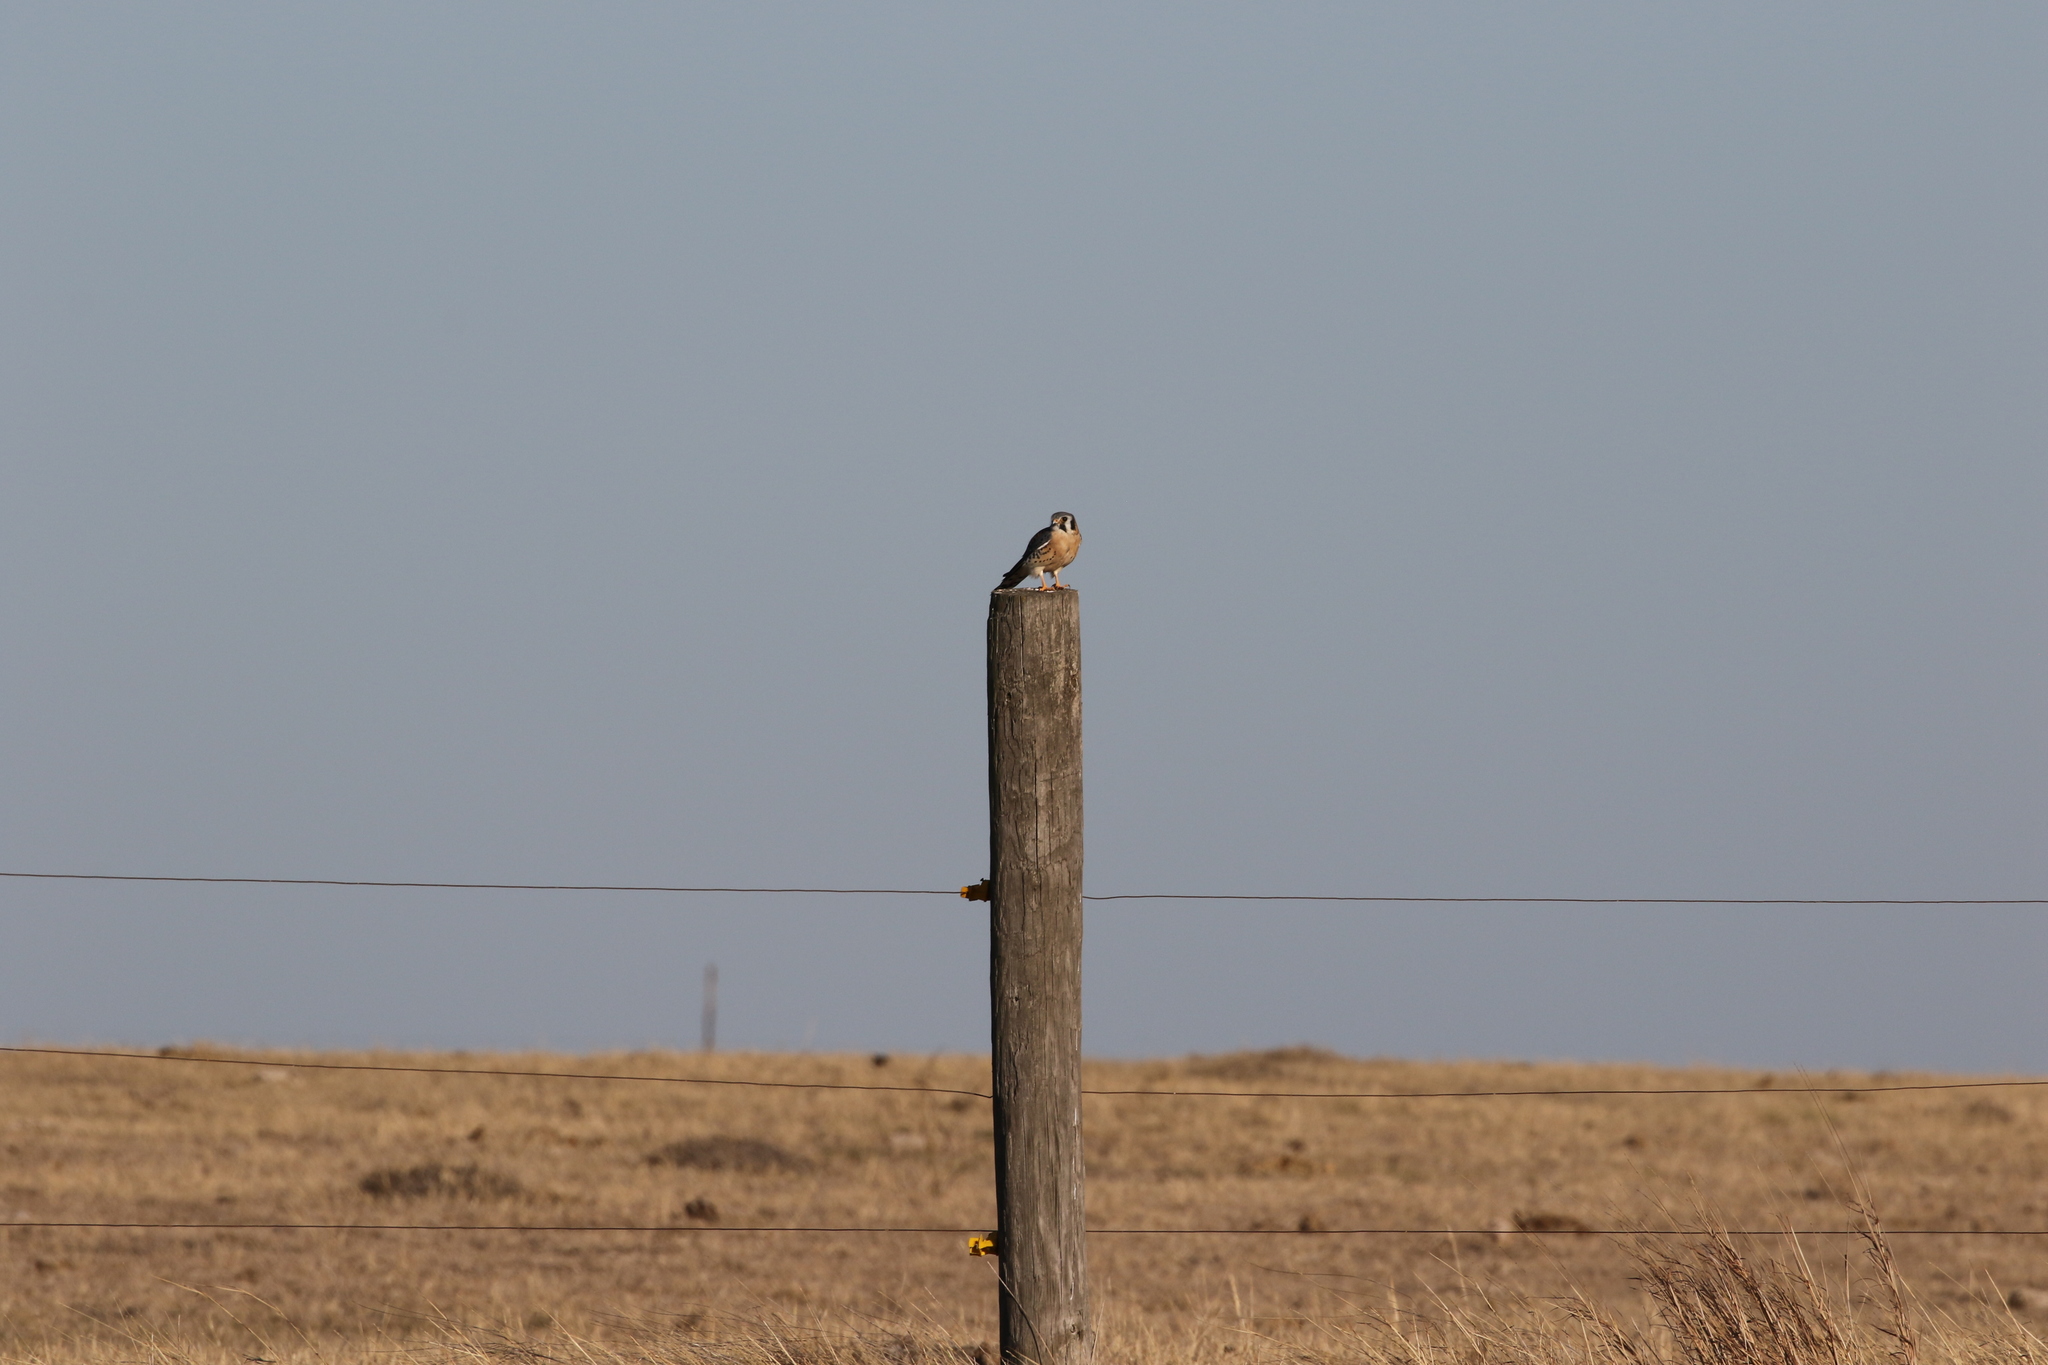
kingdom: Animalia
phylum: Chordata
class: Aves
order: Falconiformes
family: Falconidae
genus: Falco
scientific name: Falco sparverius
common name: American kestrel
